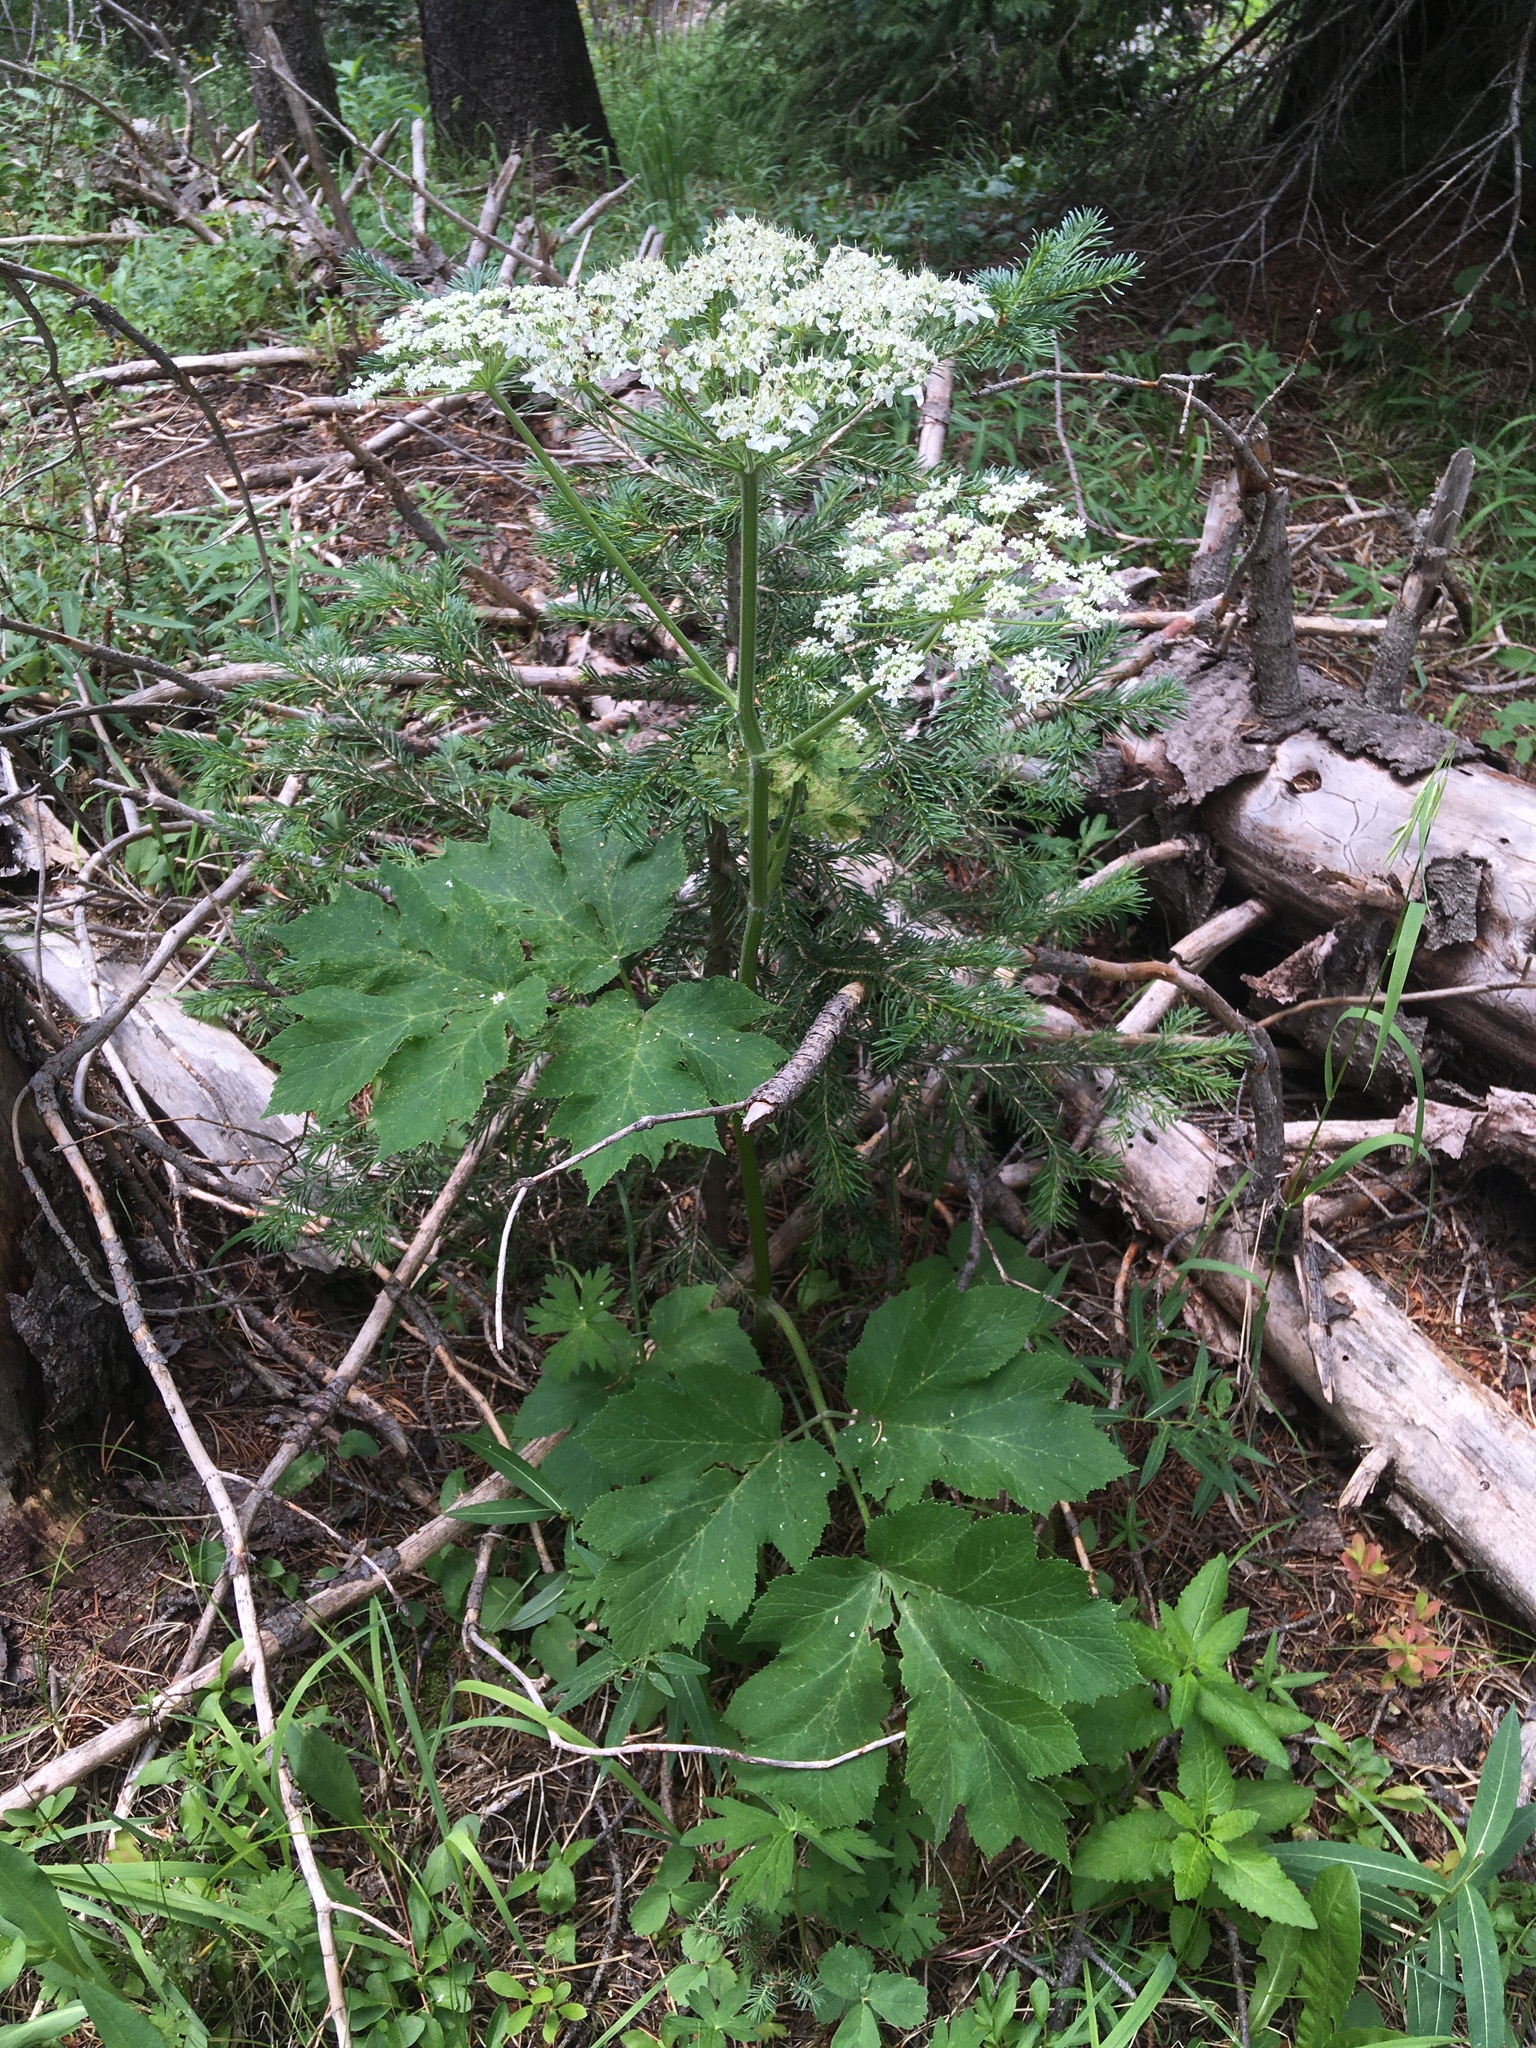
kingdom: Plantae
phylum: Tracheophyta
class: Magnoliopsida
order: Apiales
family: Apiaceae
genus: Heracleum
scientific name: Heracleum maximum
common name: American cow parsnip
